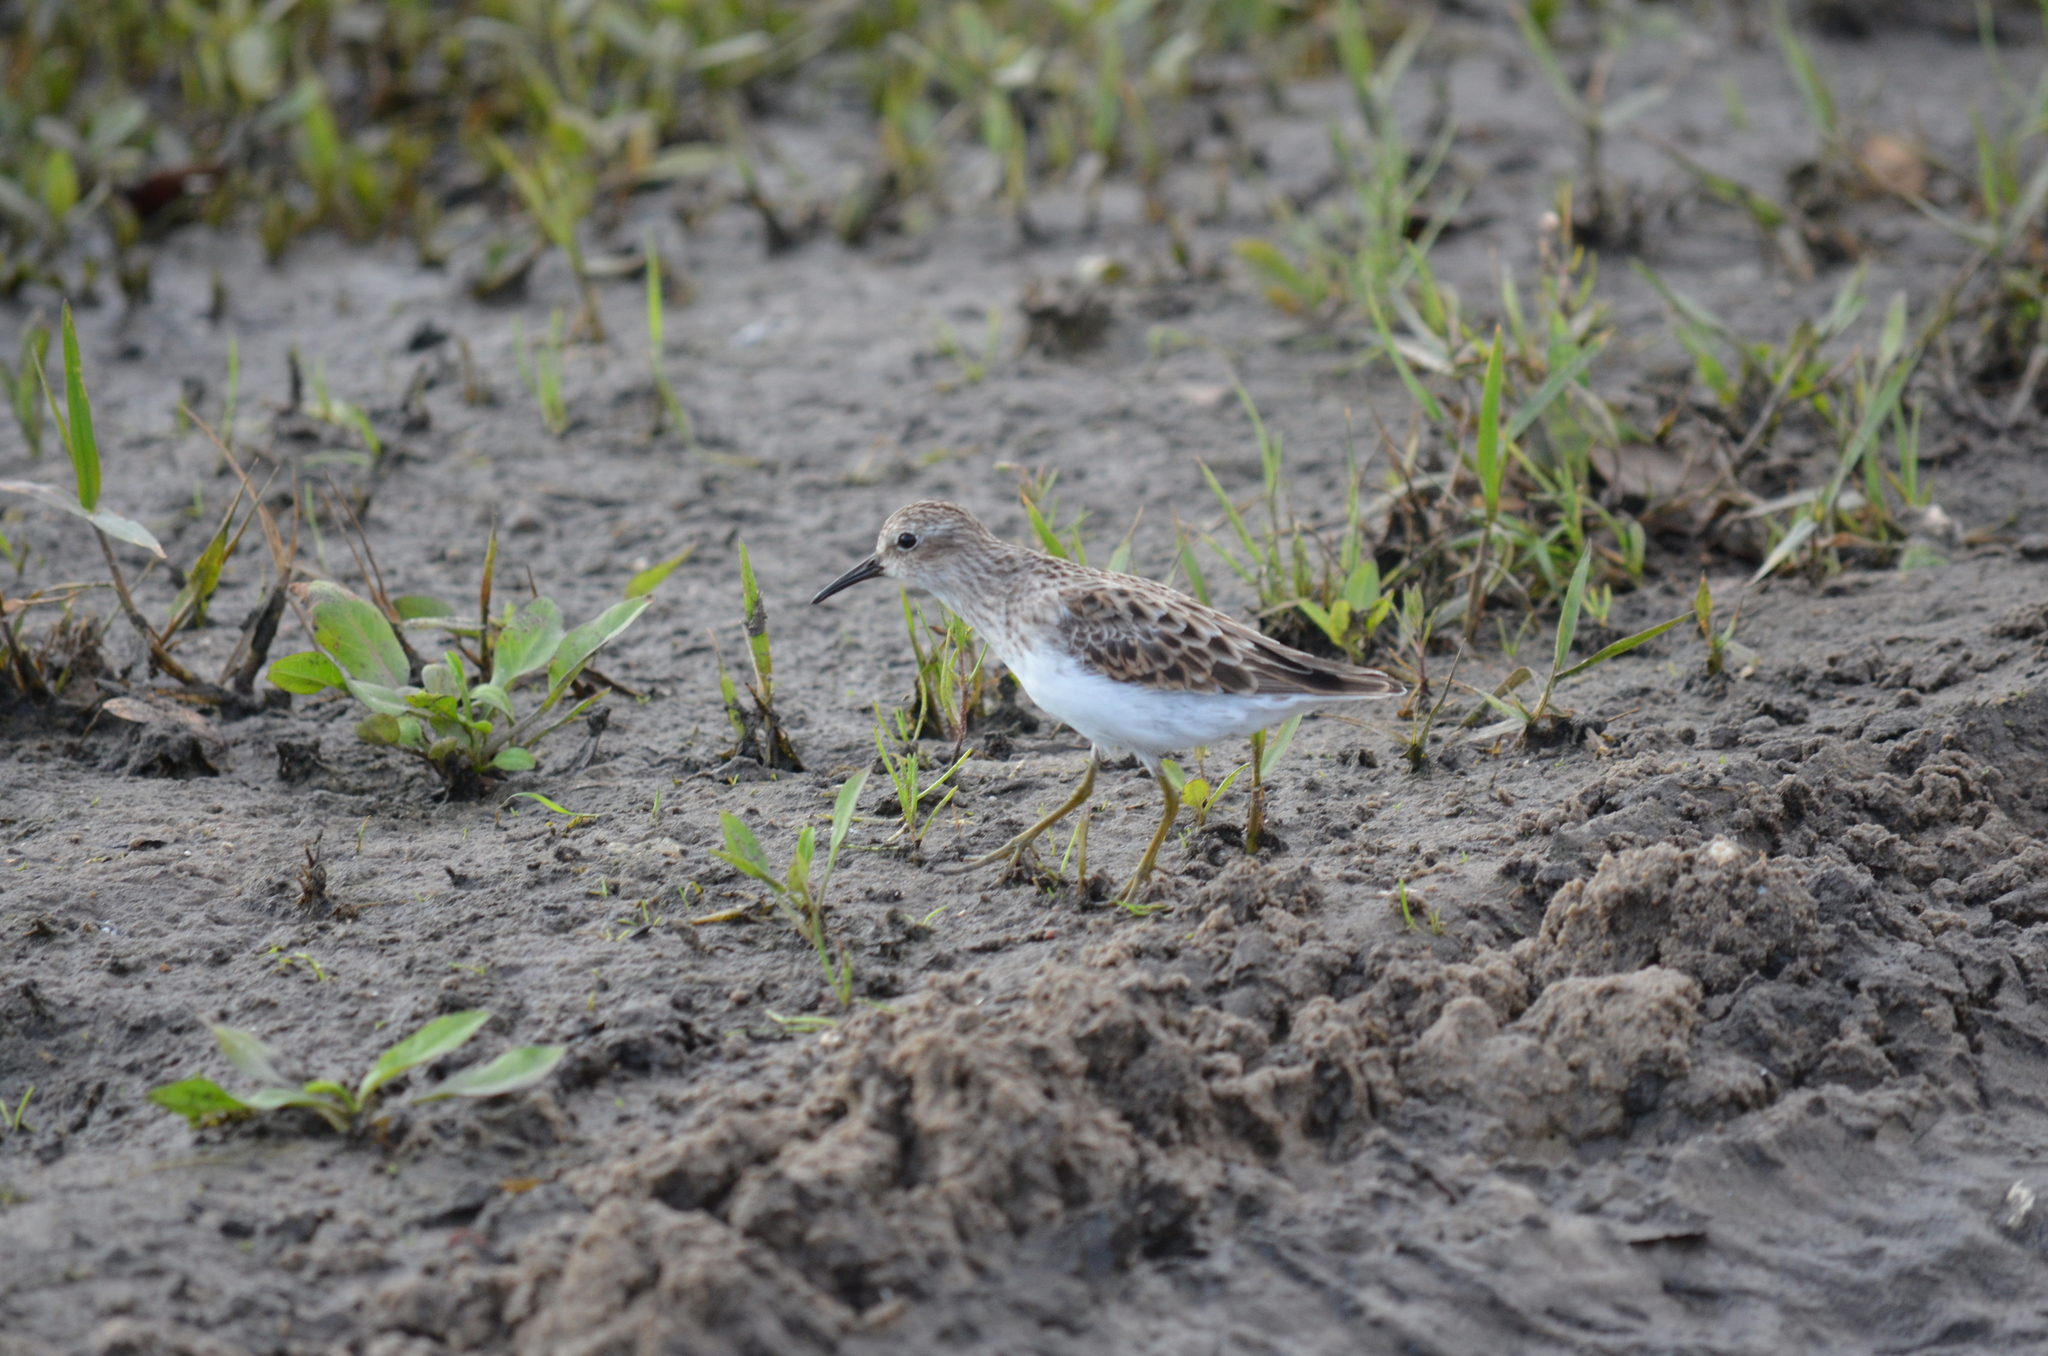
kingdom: Animalia
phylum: Chordata
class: Aves
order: Charadriiformes
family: Scolopacidae
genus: Calidris
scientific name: Calidris minutilla
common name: Least sandpiper
